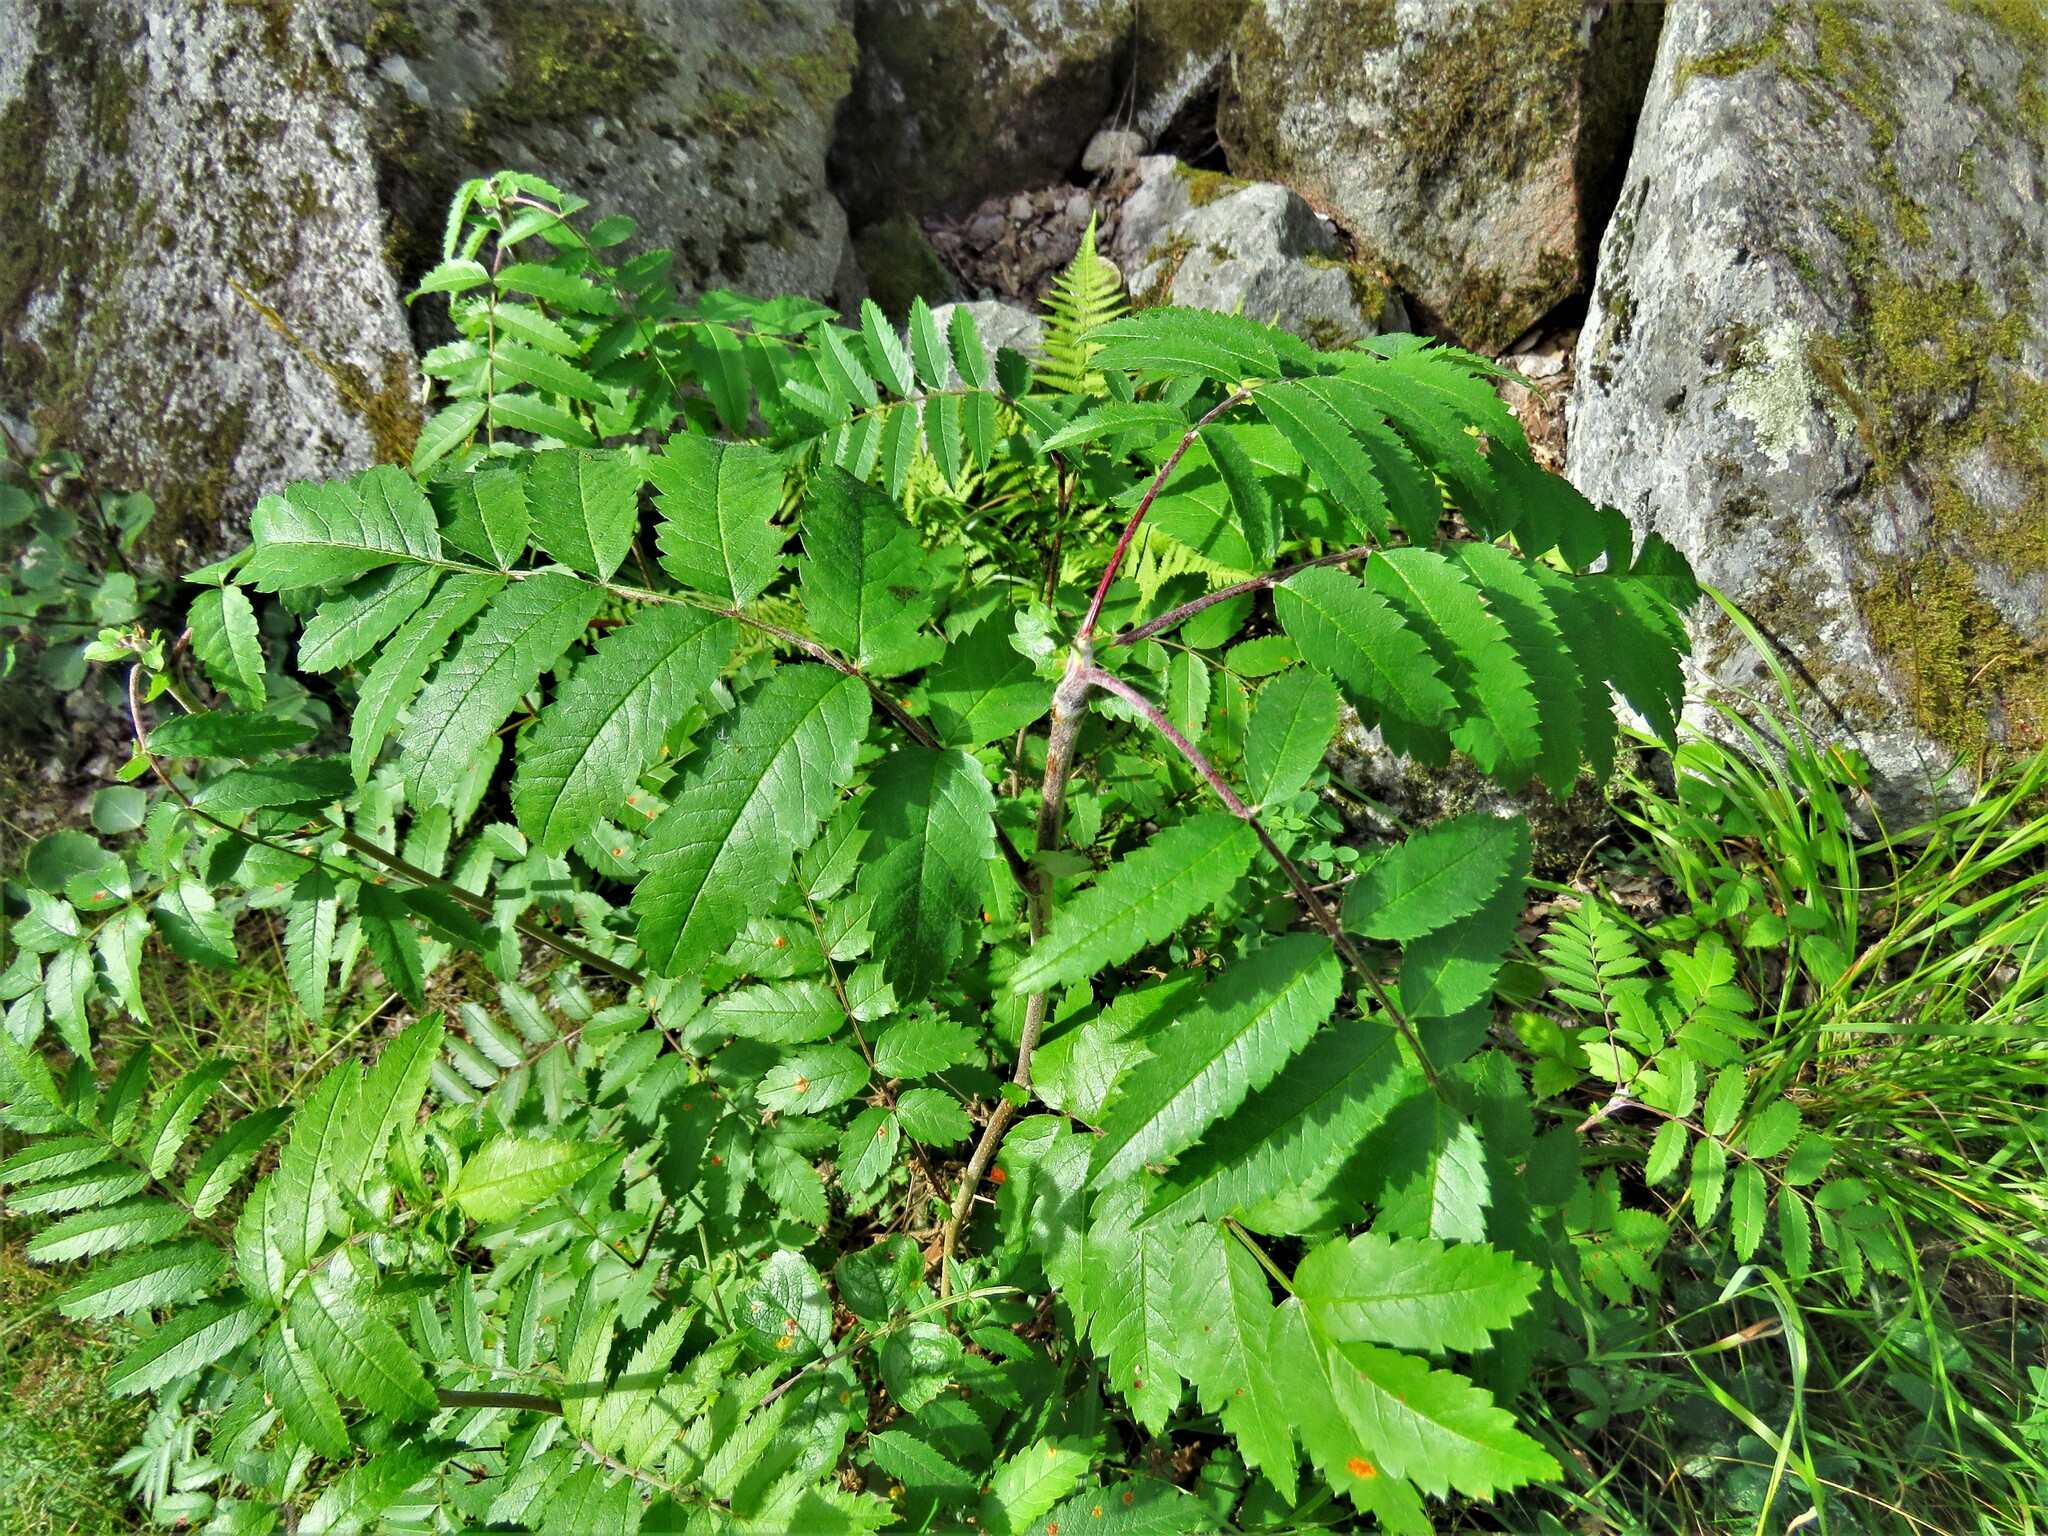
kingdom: Plantae
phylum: Tracheophyta
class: Magnoliopsida
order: Rosales
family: Rosaceae
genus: Sorbus
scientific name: Sorbus aucuparia
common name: Rowan
